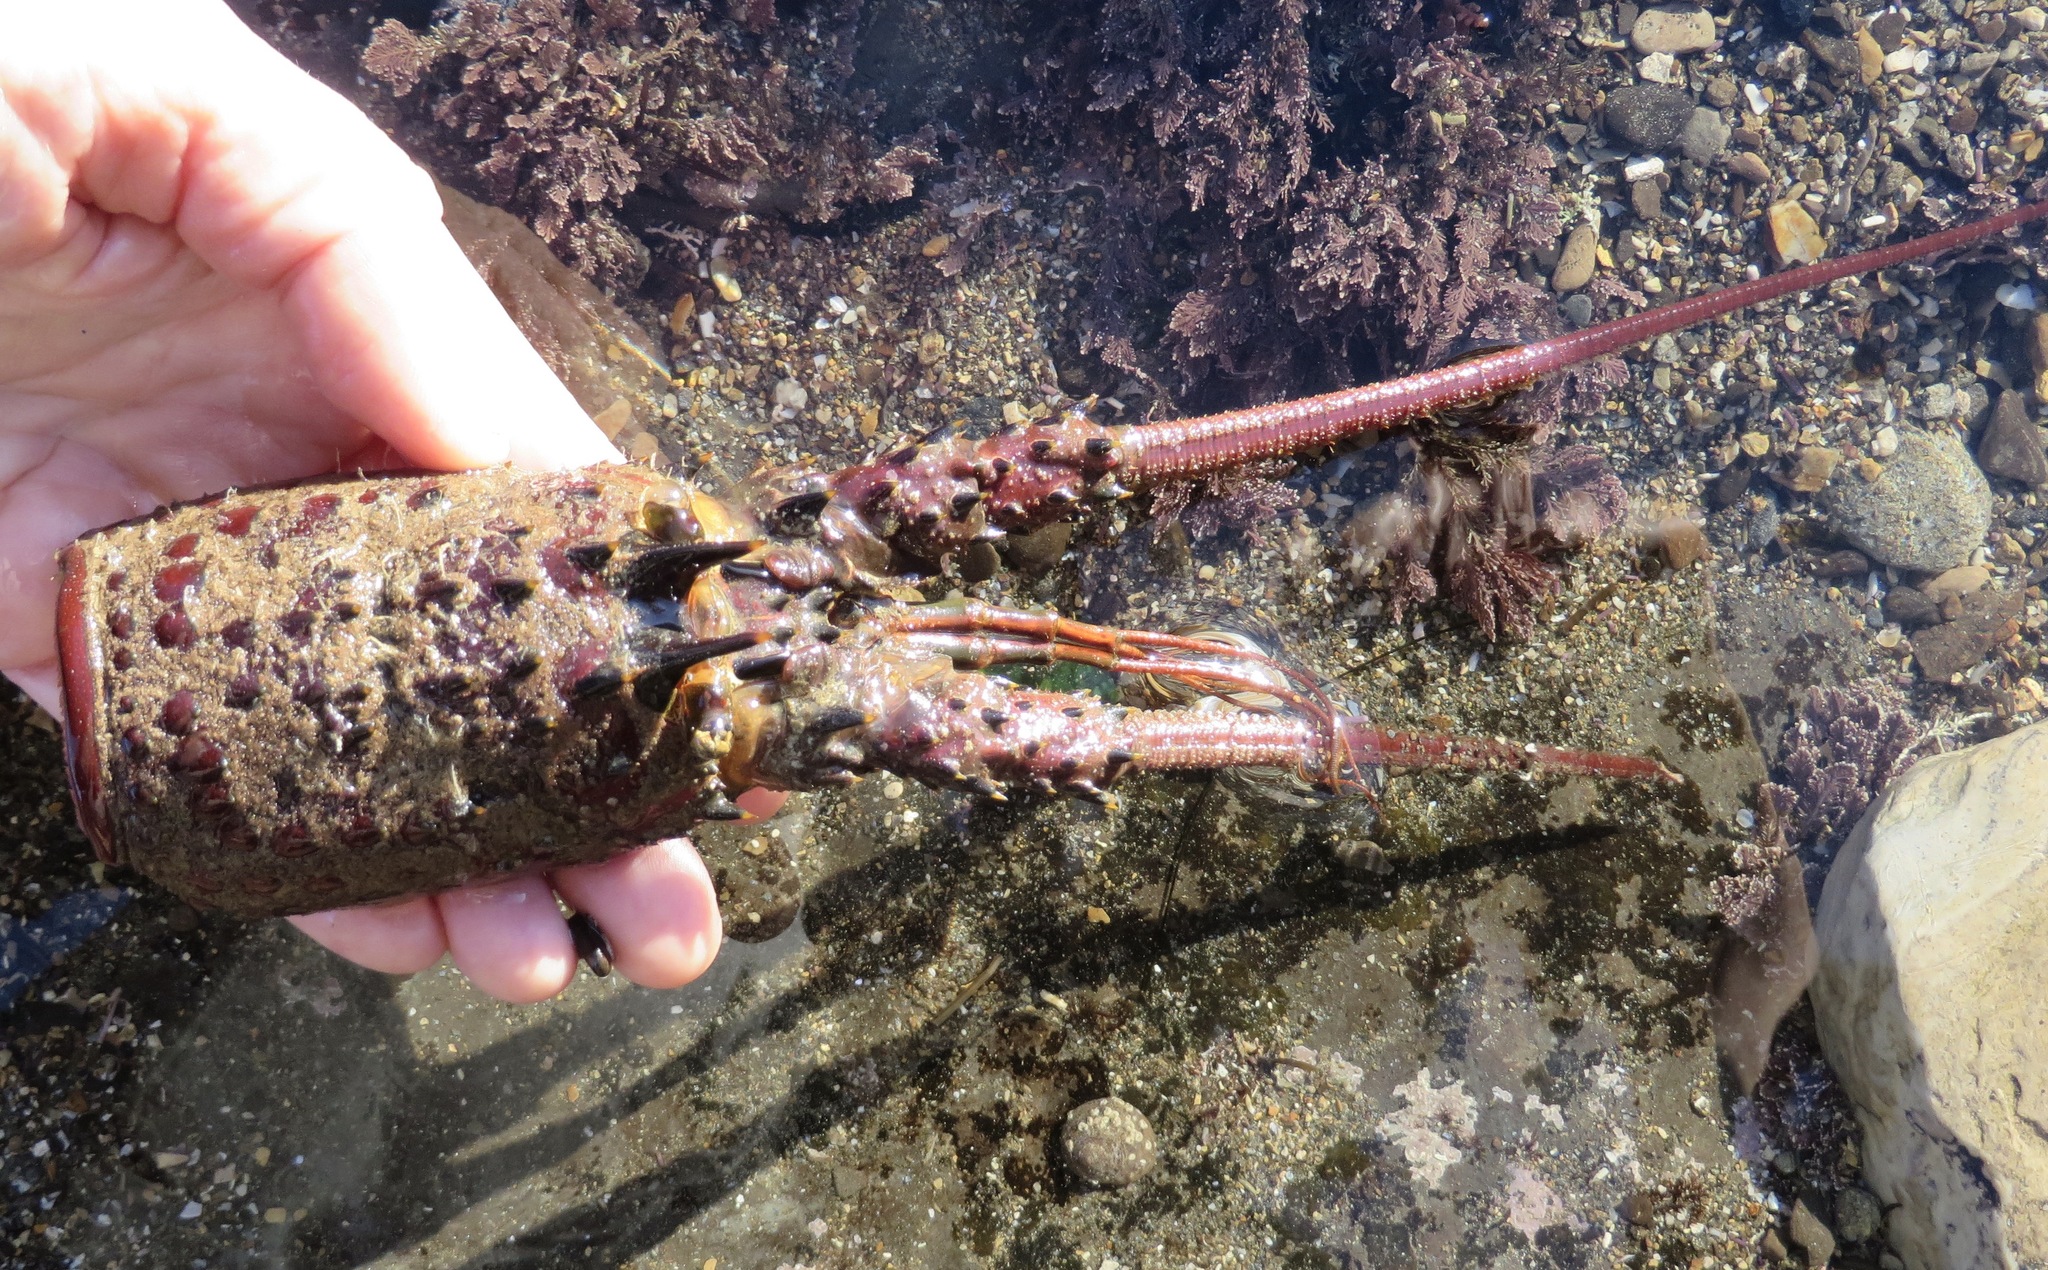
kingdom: Animalia
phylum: Arthropoda
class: Malacostraca
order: Decapoda
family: Palinuridae
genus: Panulirus
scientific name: Panulirus interruptus
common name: California spiny lobster
